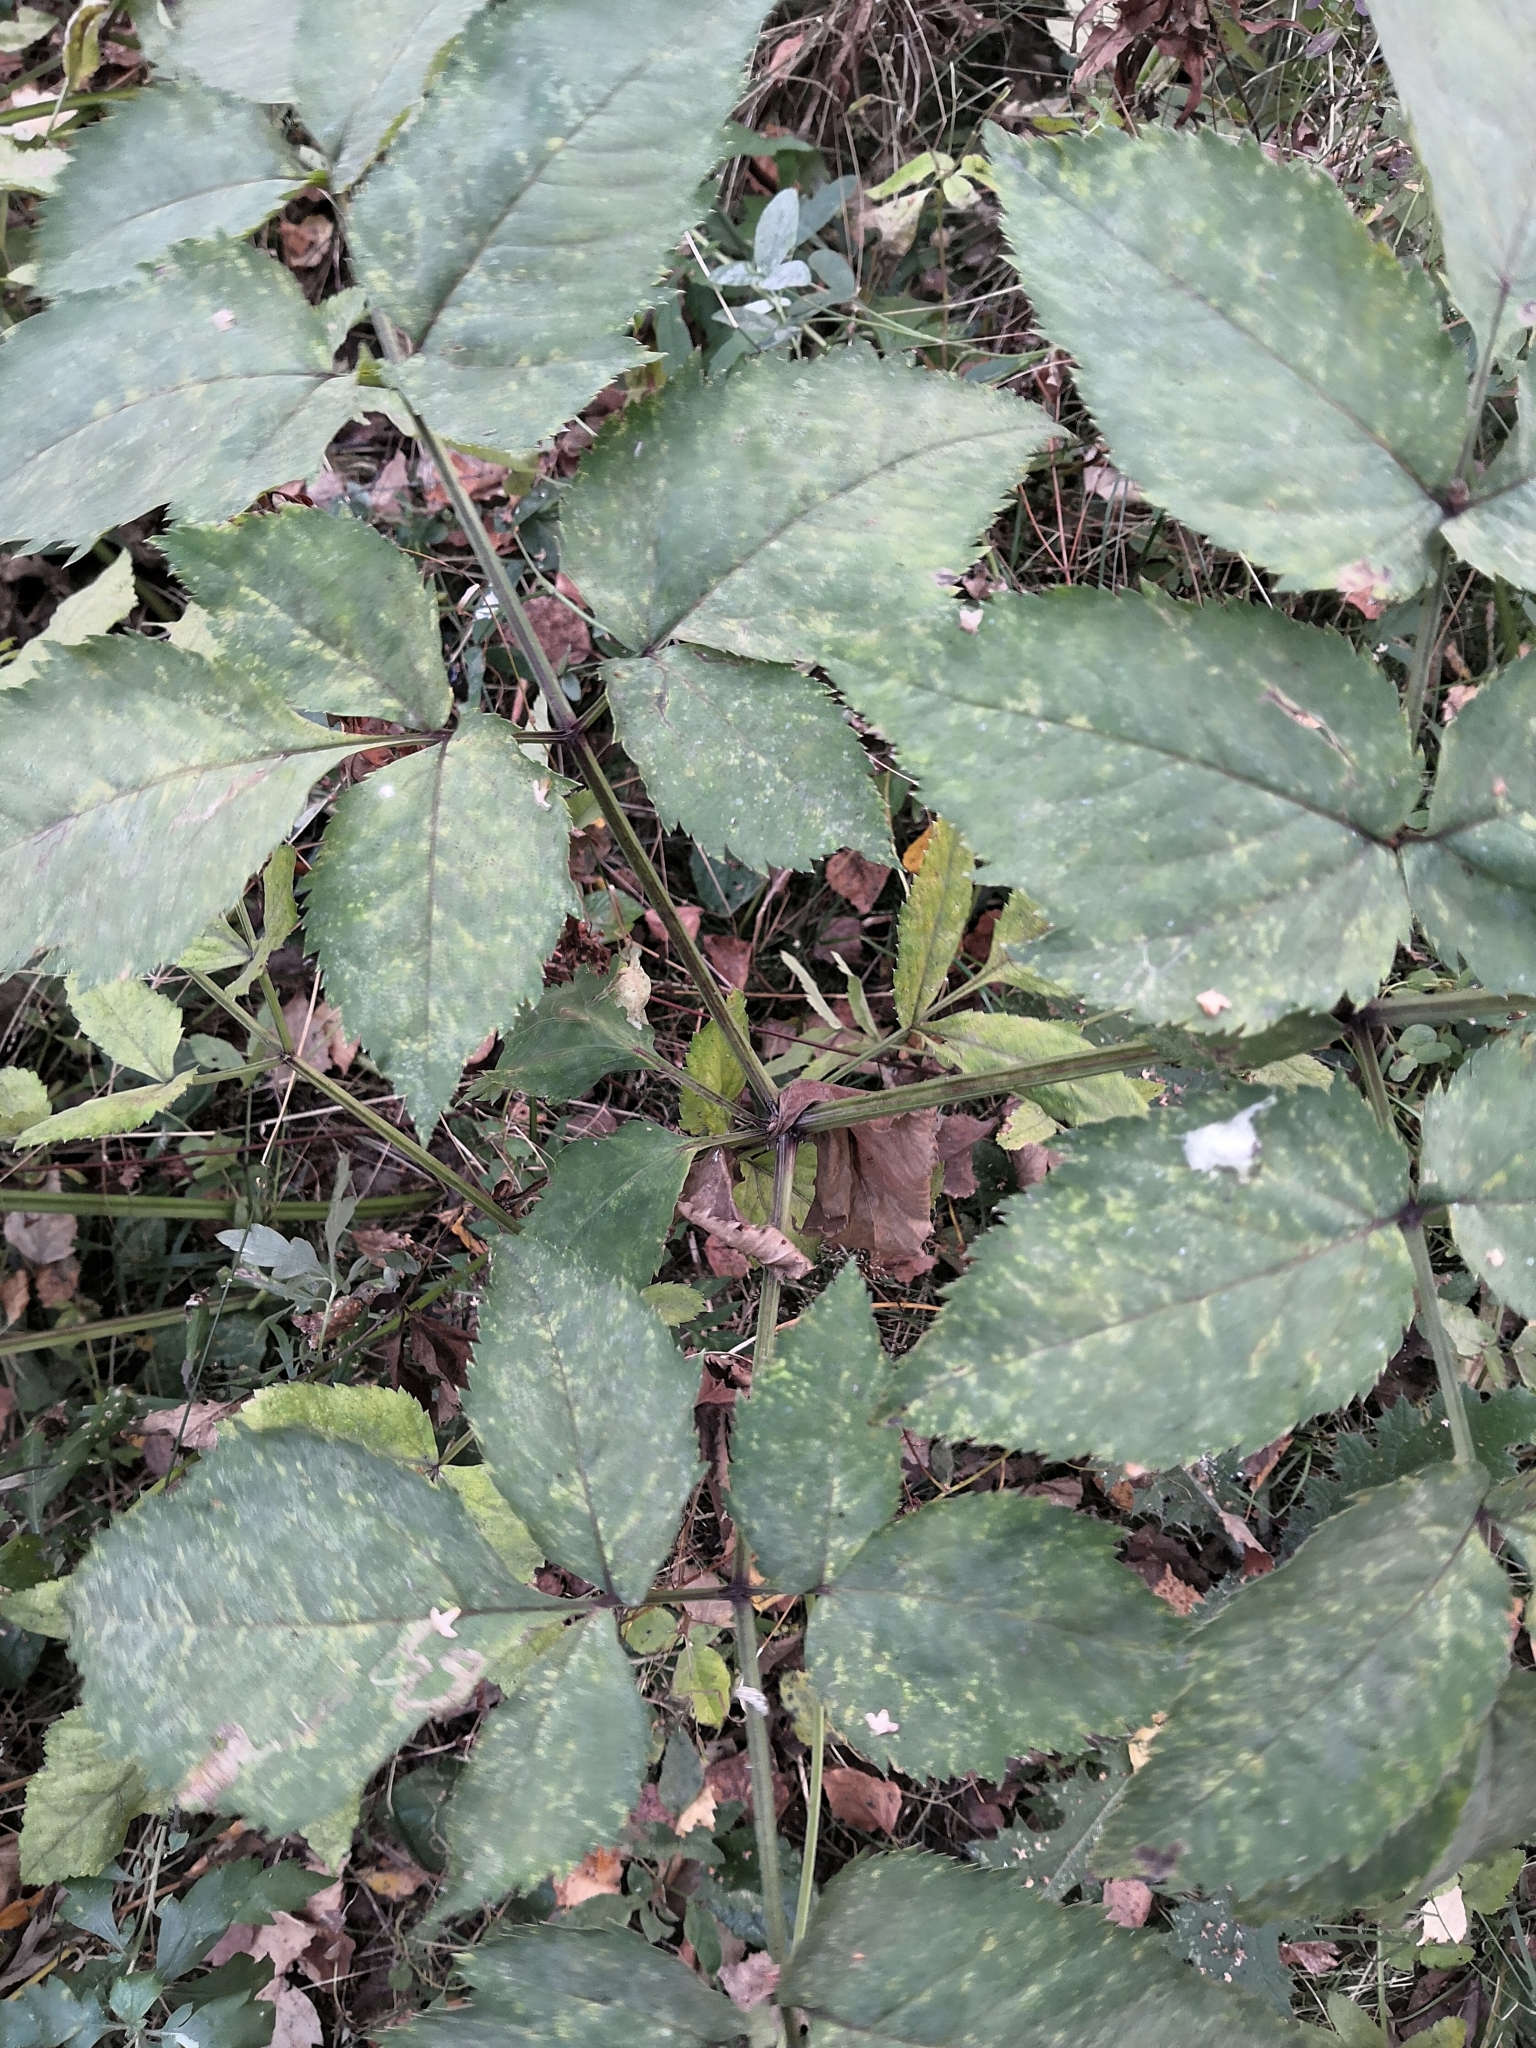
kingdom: Plantae
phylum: Tracheophyta
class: Magnoliopsida
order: Apiales
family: Apiaceae
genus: Angelica
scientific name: Angelica sylvestris
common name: Wild angelica
